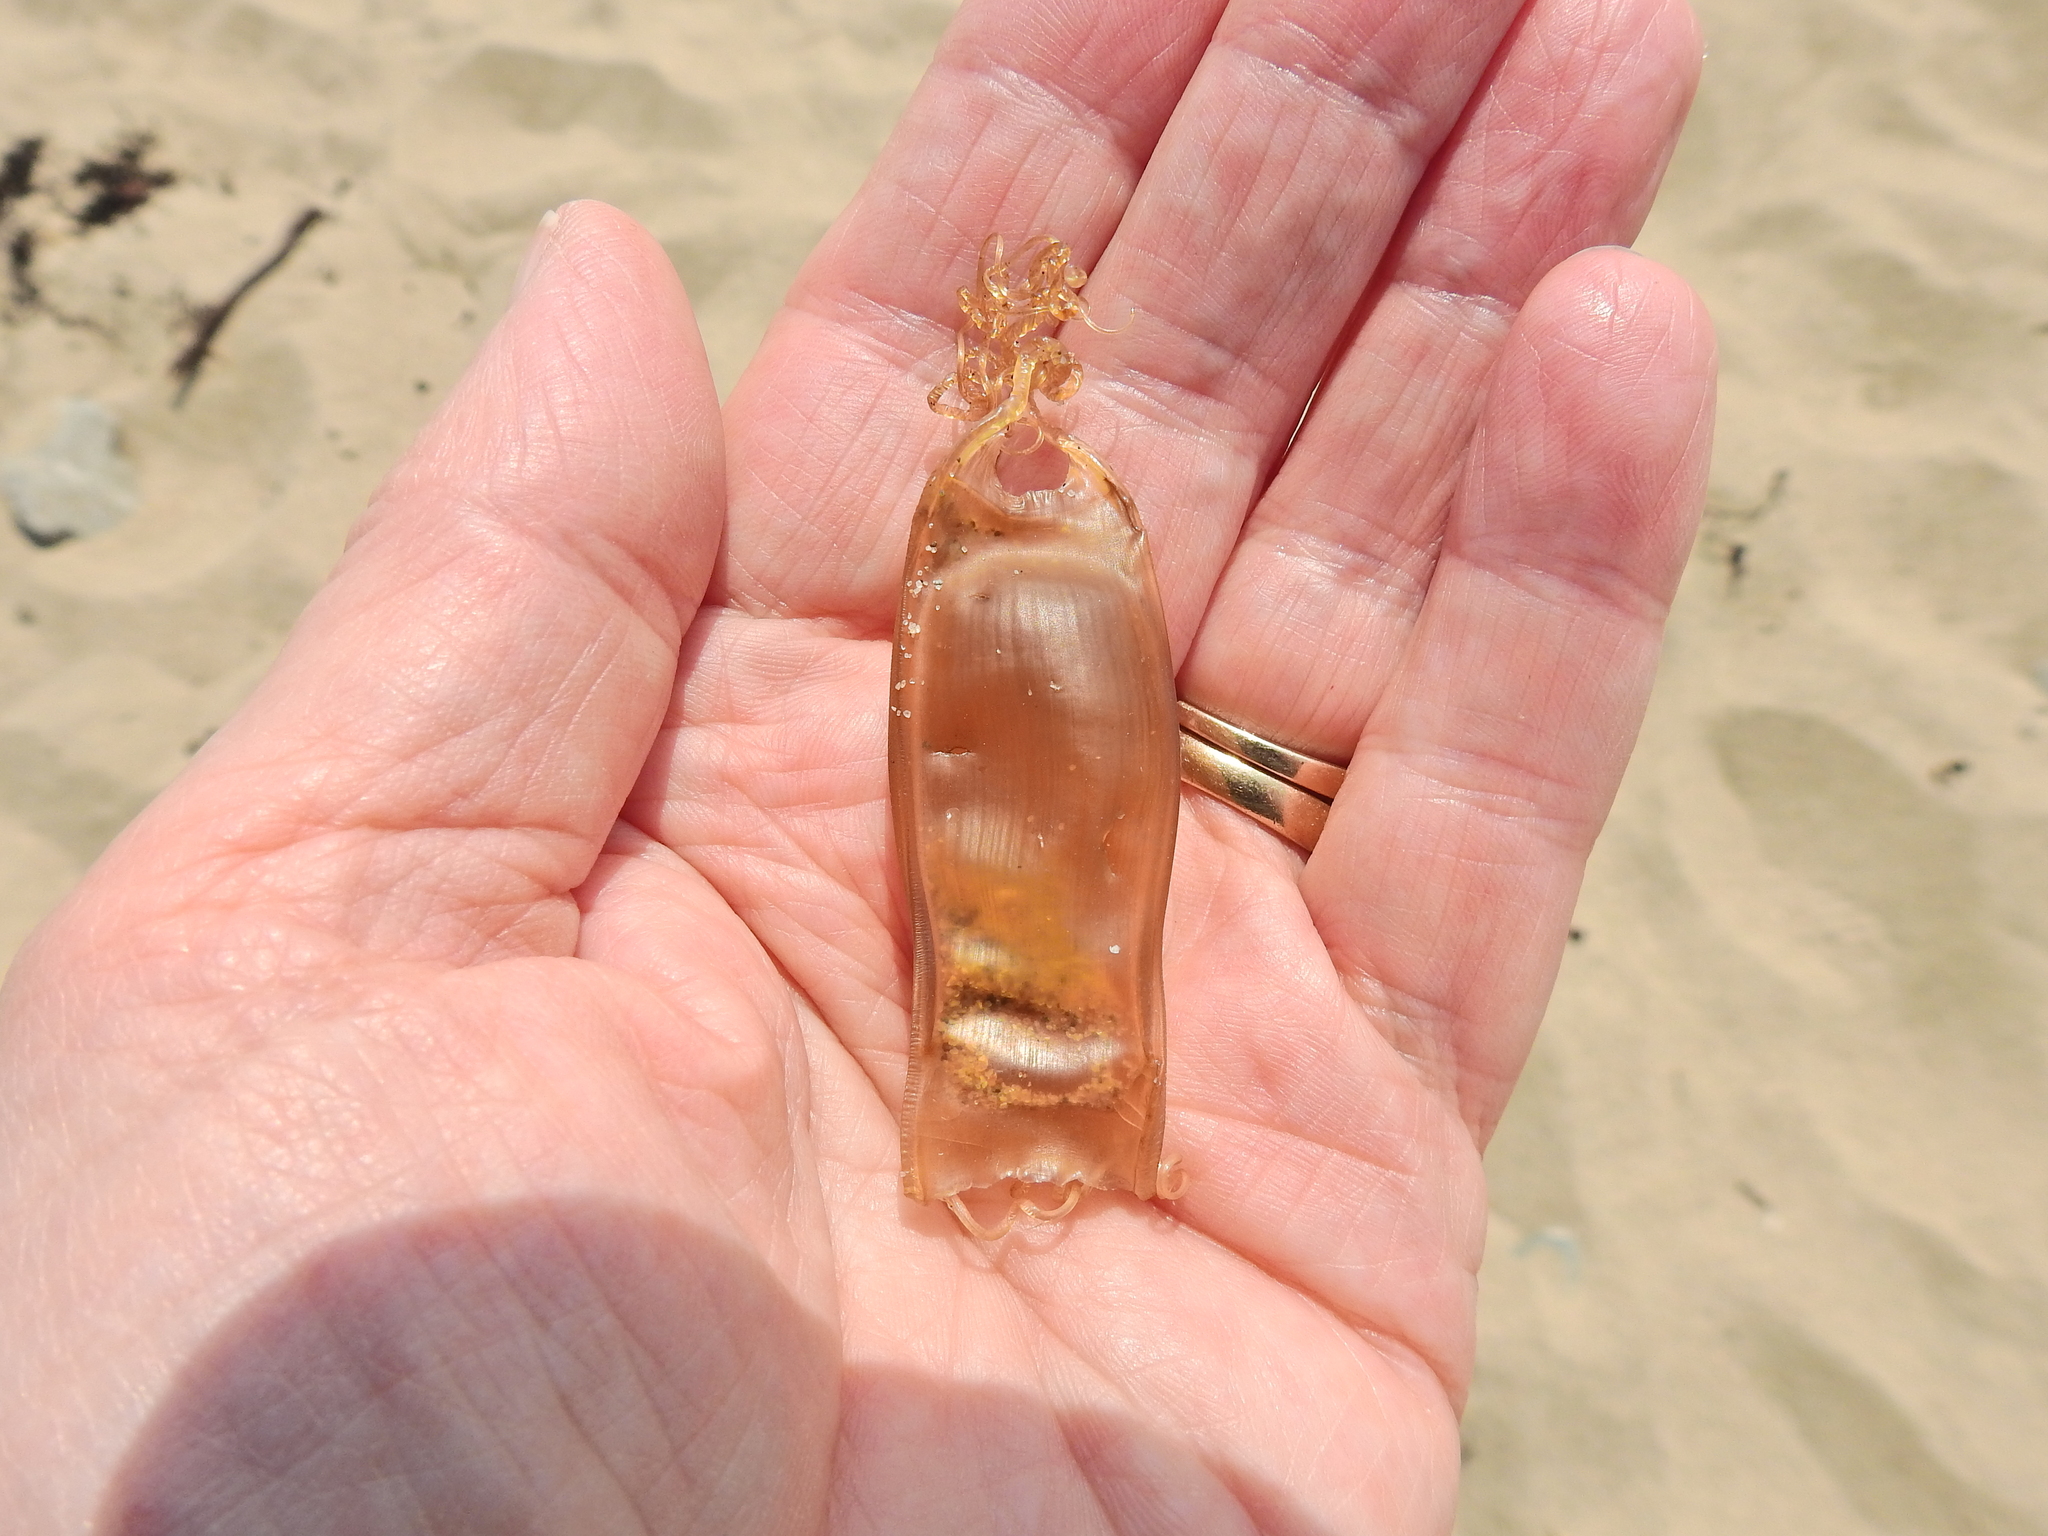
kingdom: Animalia
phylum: Chordata
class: Elasmobranchii
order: Carcharhiniformes
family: Scyliorhinidae
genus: Scyliorhinus
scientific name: Scyliorhinus canicula
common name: Lesser spotted dogfish
